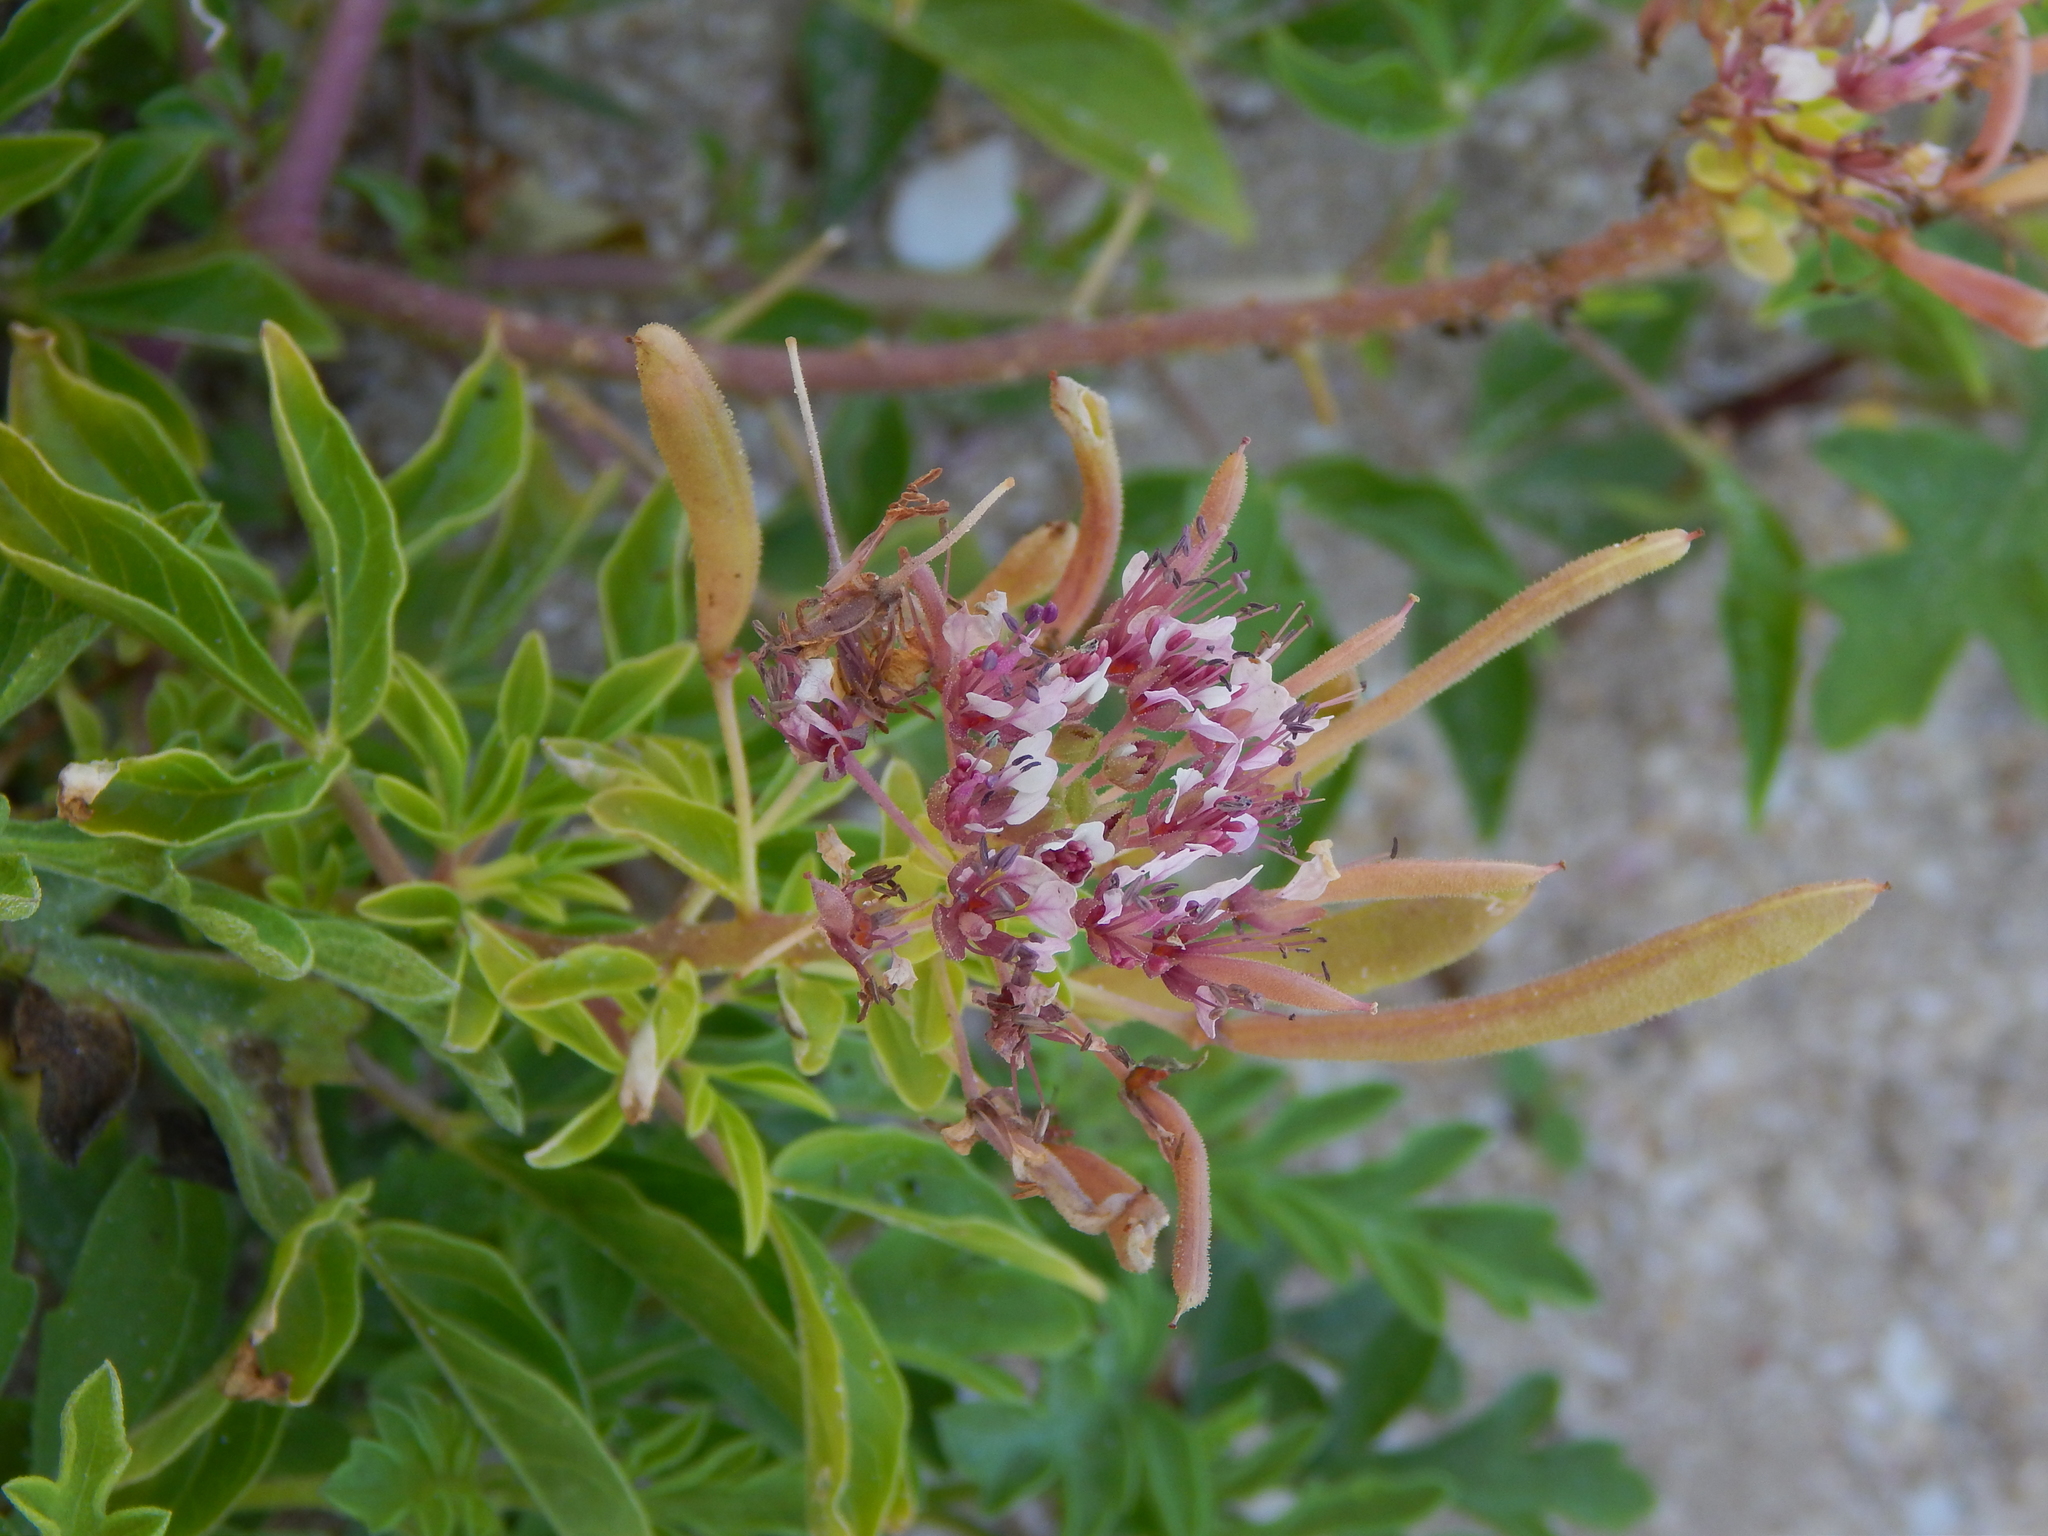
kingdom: Plantae
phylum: Tracheophyta
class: Magnoliopsida
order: Brassicales
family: Cleomaceae
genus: Polanisia
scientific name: Polanisia dodecandra
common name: Clammyweed
